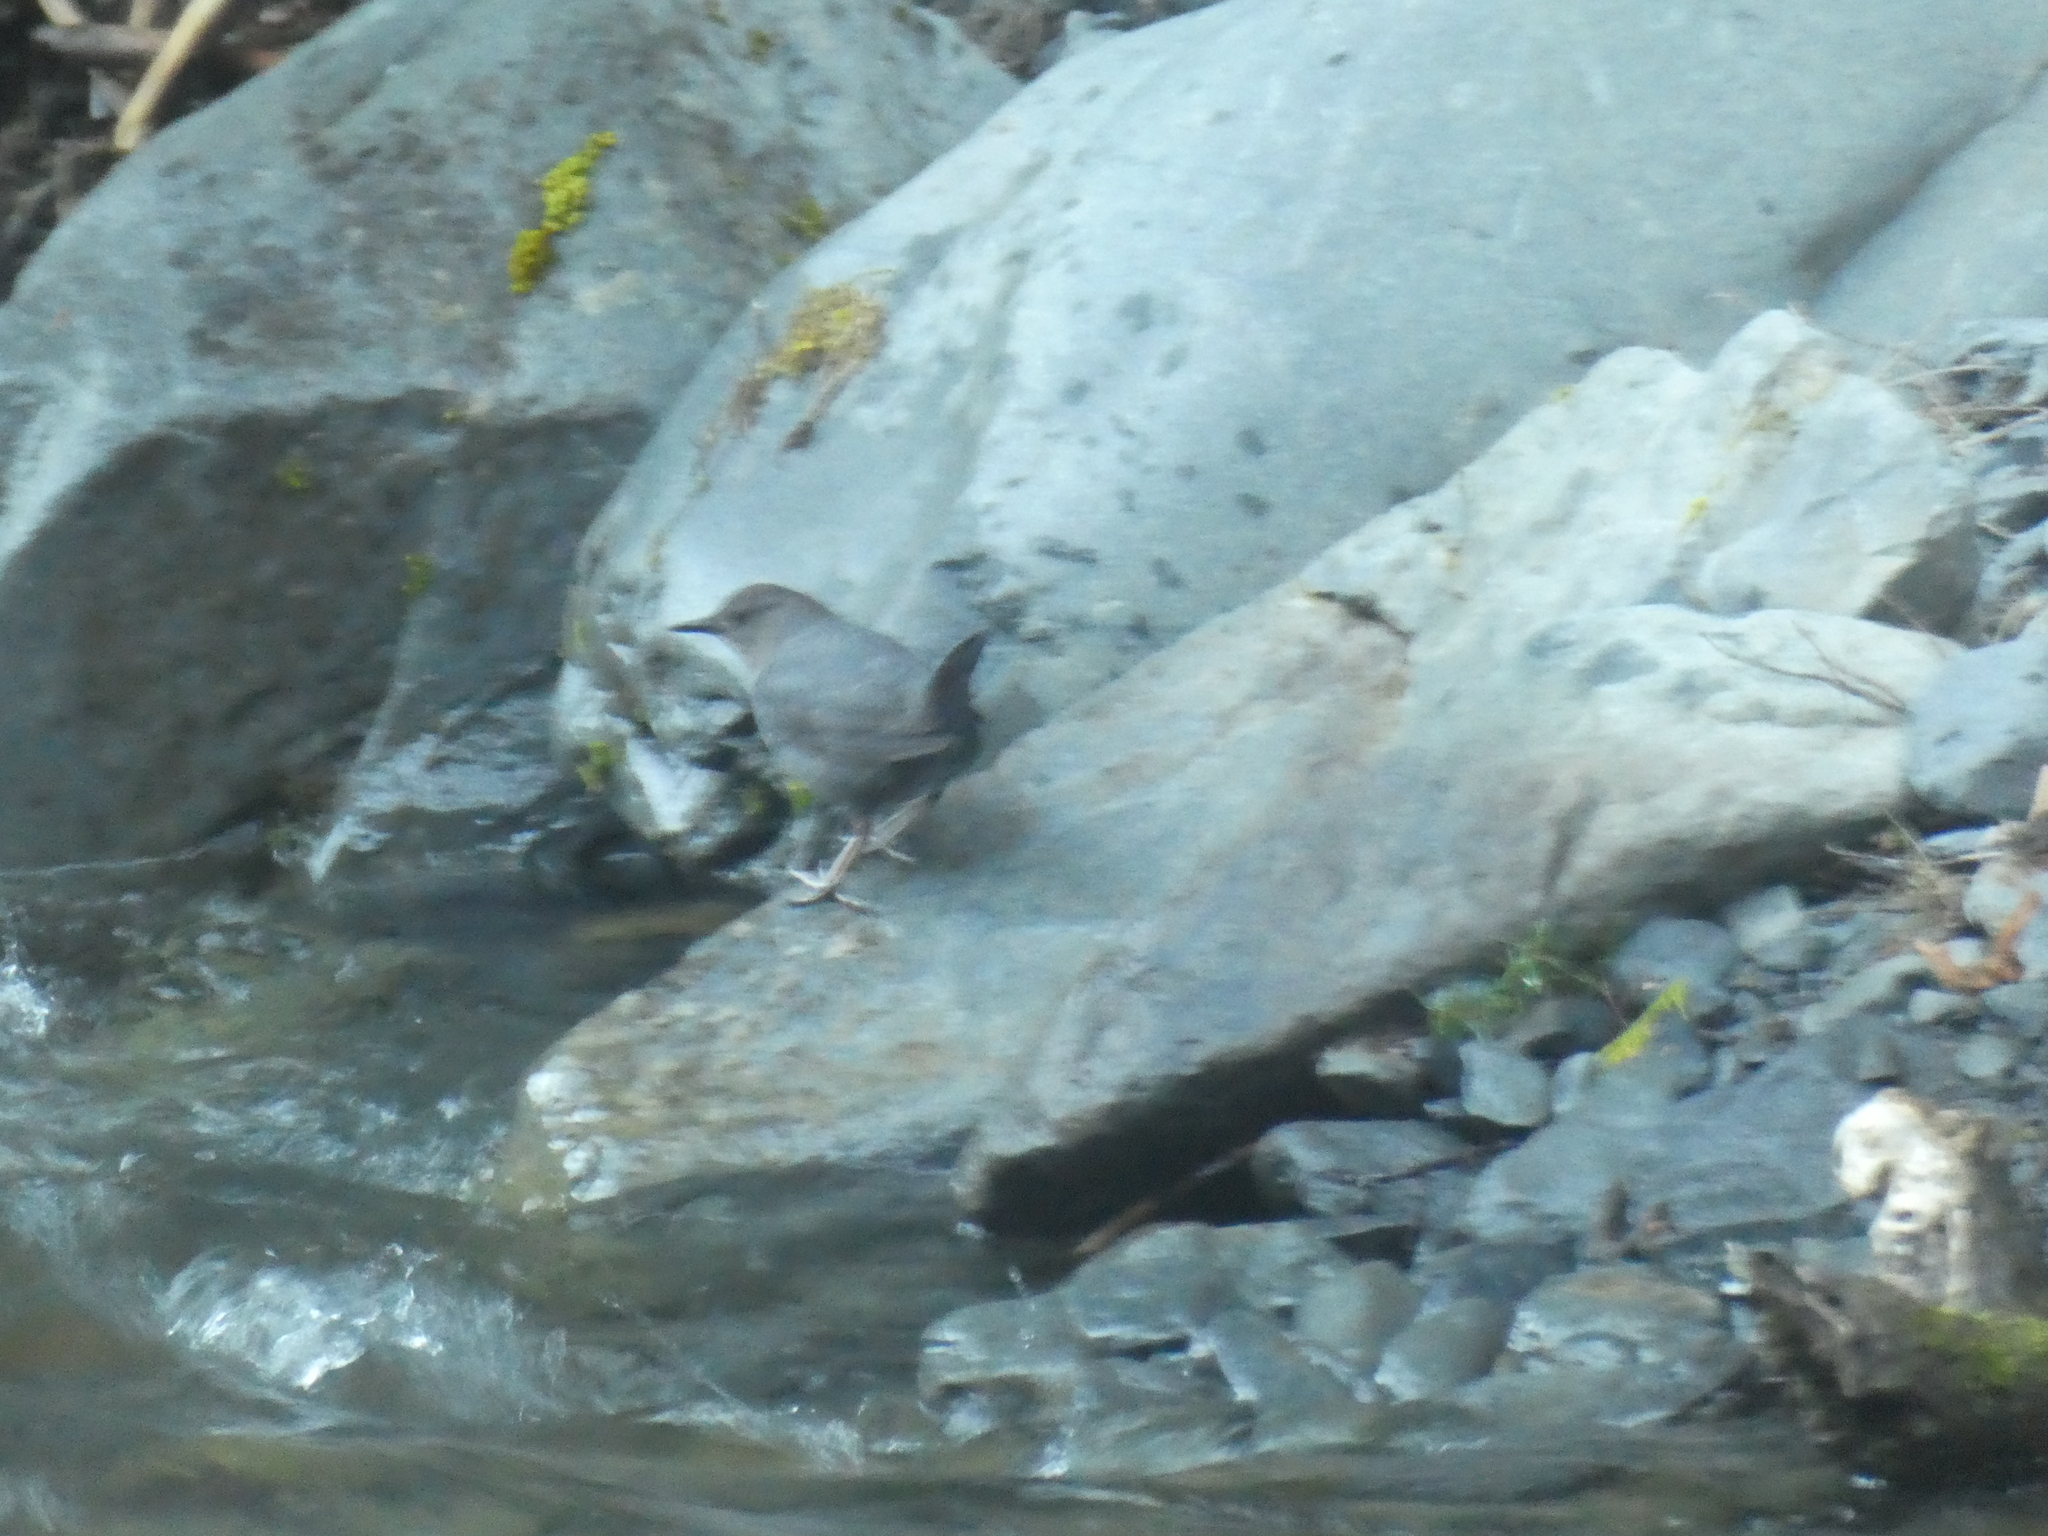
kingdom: Animalia
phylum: Chordata
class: Aves
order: Passeriformes
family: Cinclidae
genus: Cinclus
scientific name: Cinclus mexicanus
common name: American dipper
